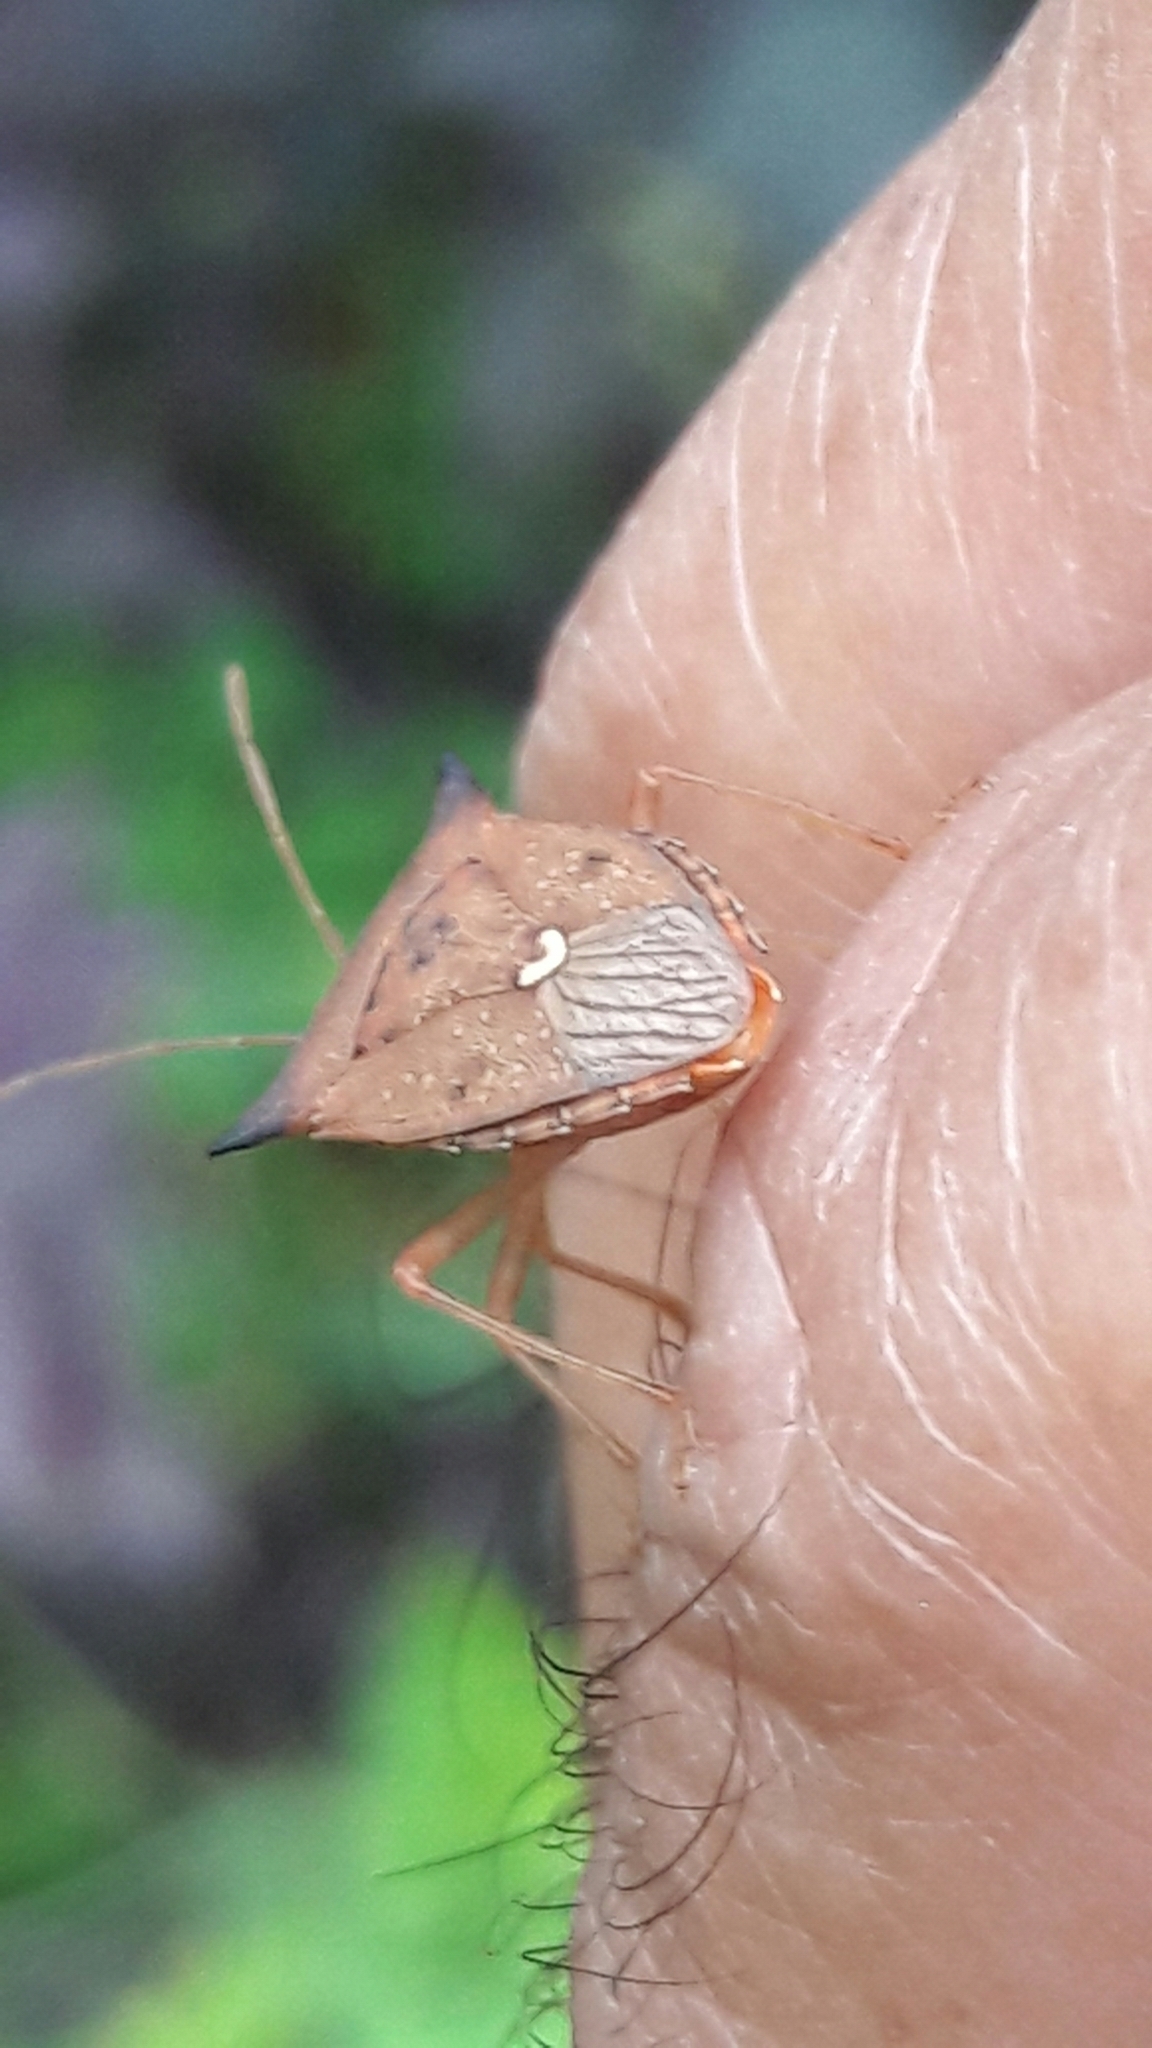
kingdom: Animalia
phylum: Arthropoda
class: Insecta
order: Hemiptera
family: Pentatomidae
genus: Euschistus
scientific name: Euschistus heros
